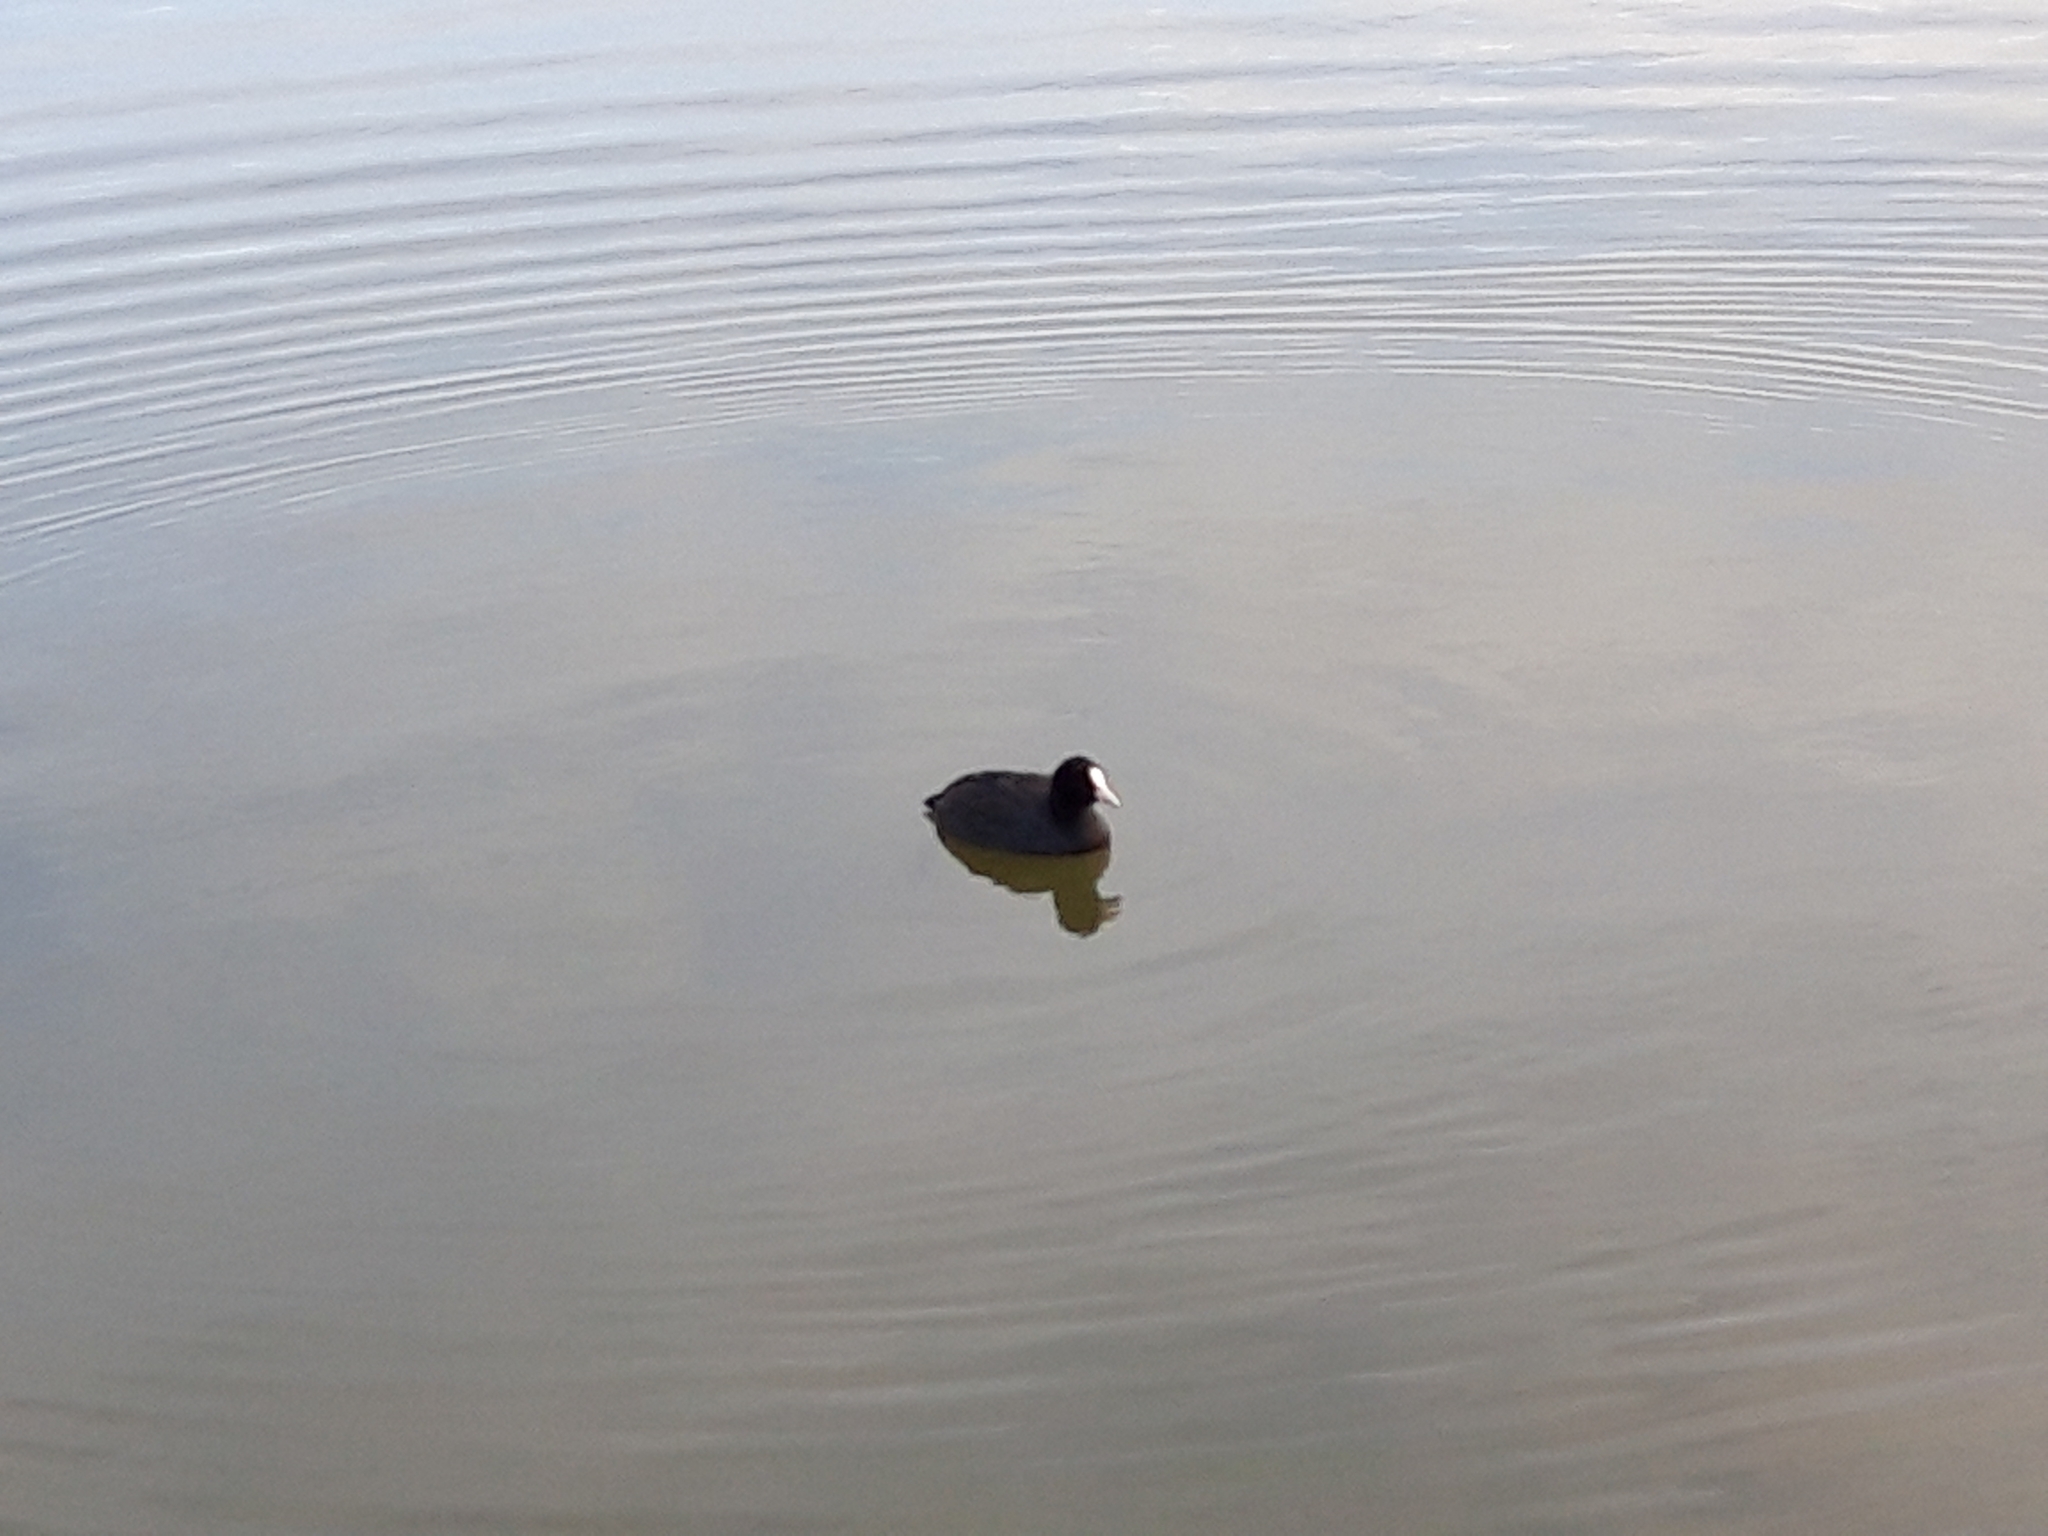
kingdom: Animalia
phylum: Chordata
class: Aves
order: Gruiformes
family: Rallidae
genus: Fulica
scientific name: Fulica atra
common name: Eurasian coot
